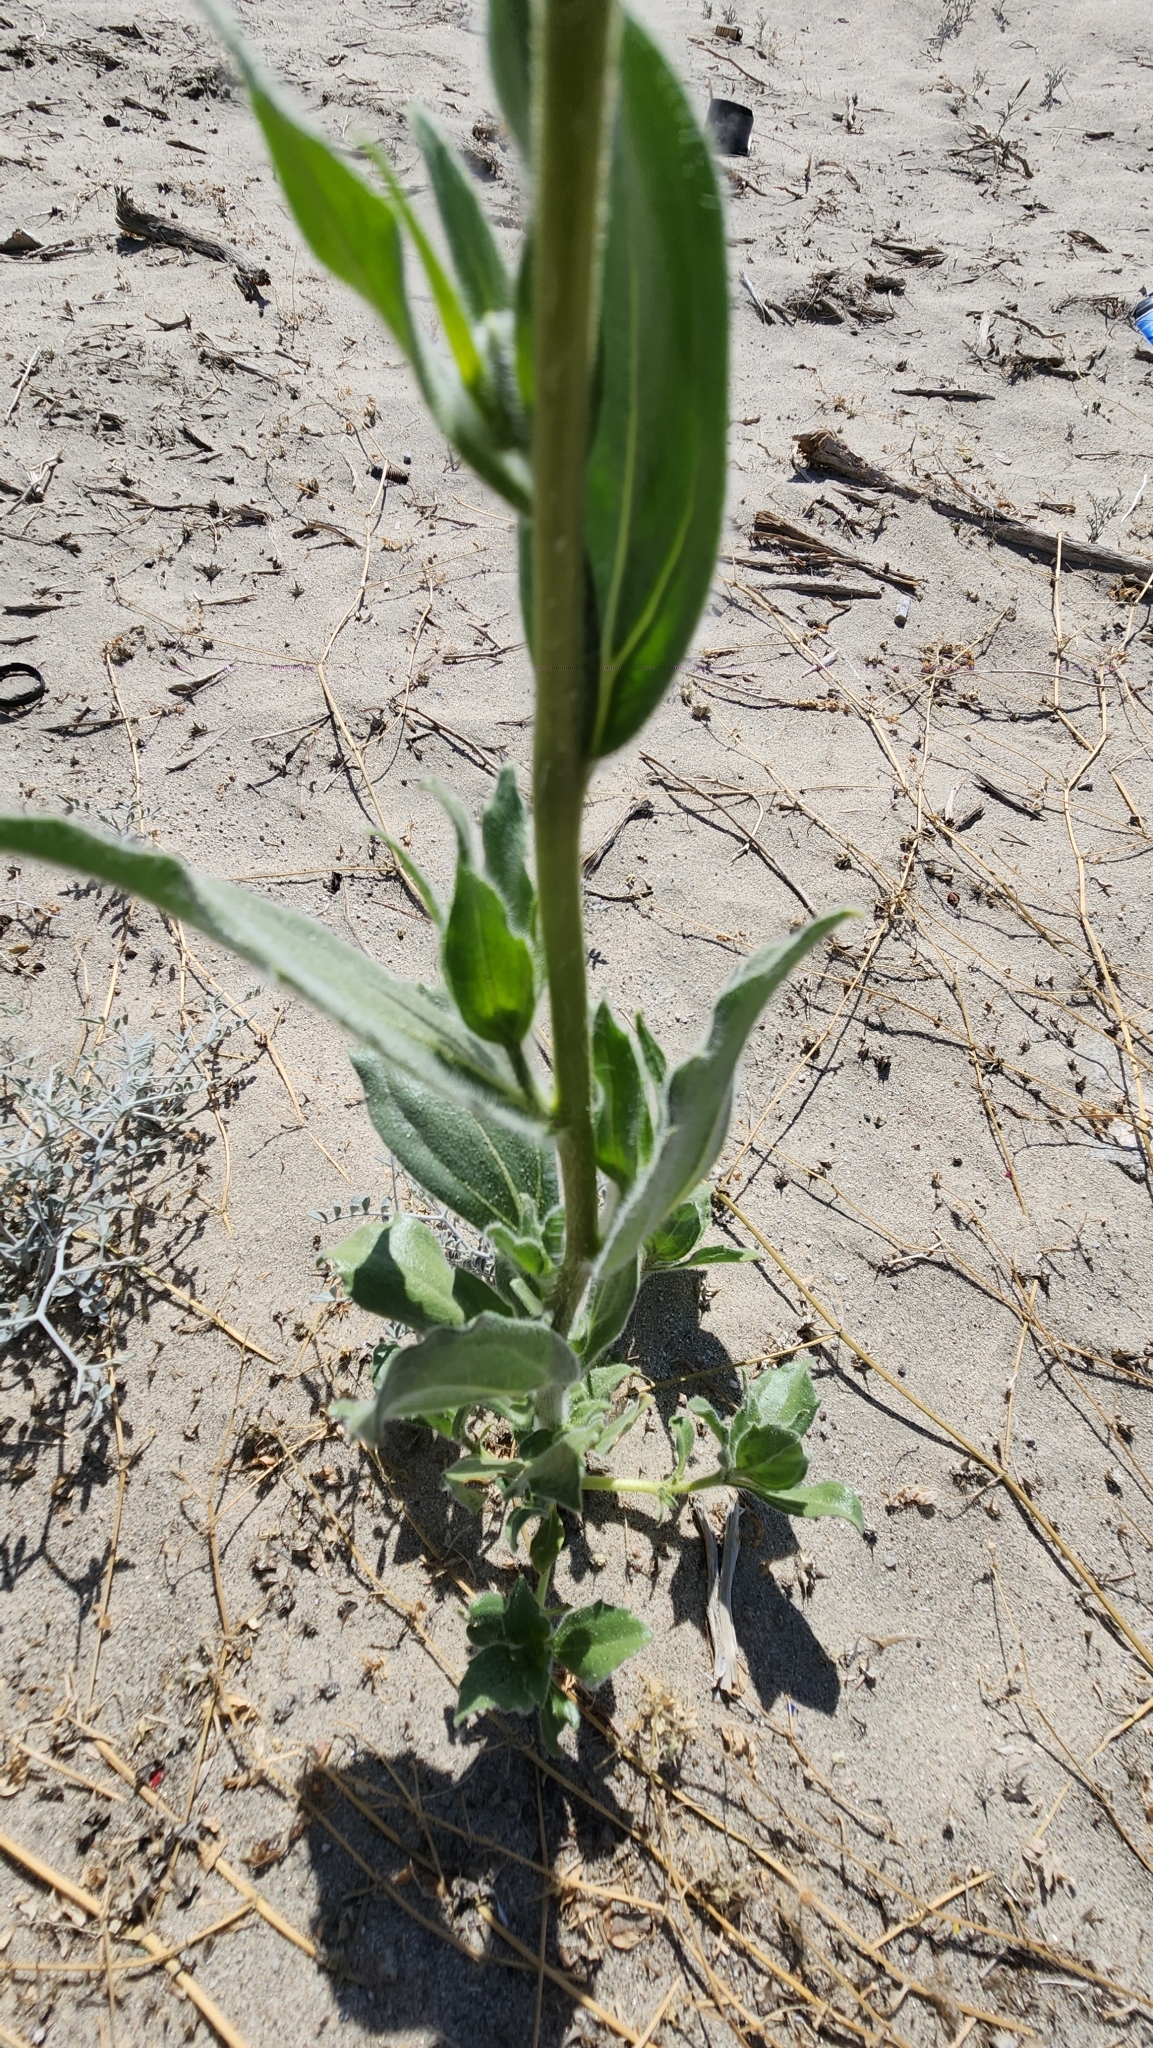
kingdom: Plantae
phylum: Tracheophyta
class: Magnoliopsida
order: Asterales
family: Asteraceae
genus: Geraea
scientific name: Geraea canescens
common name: Desert-gold
